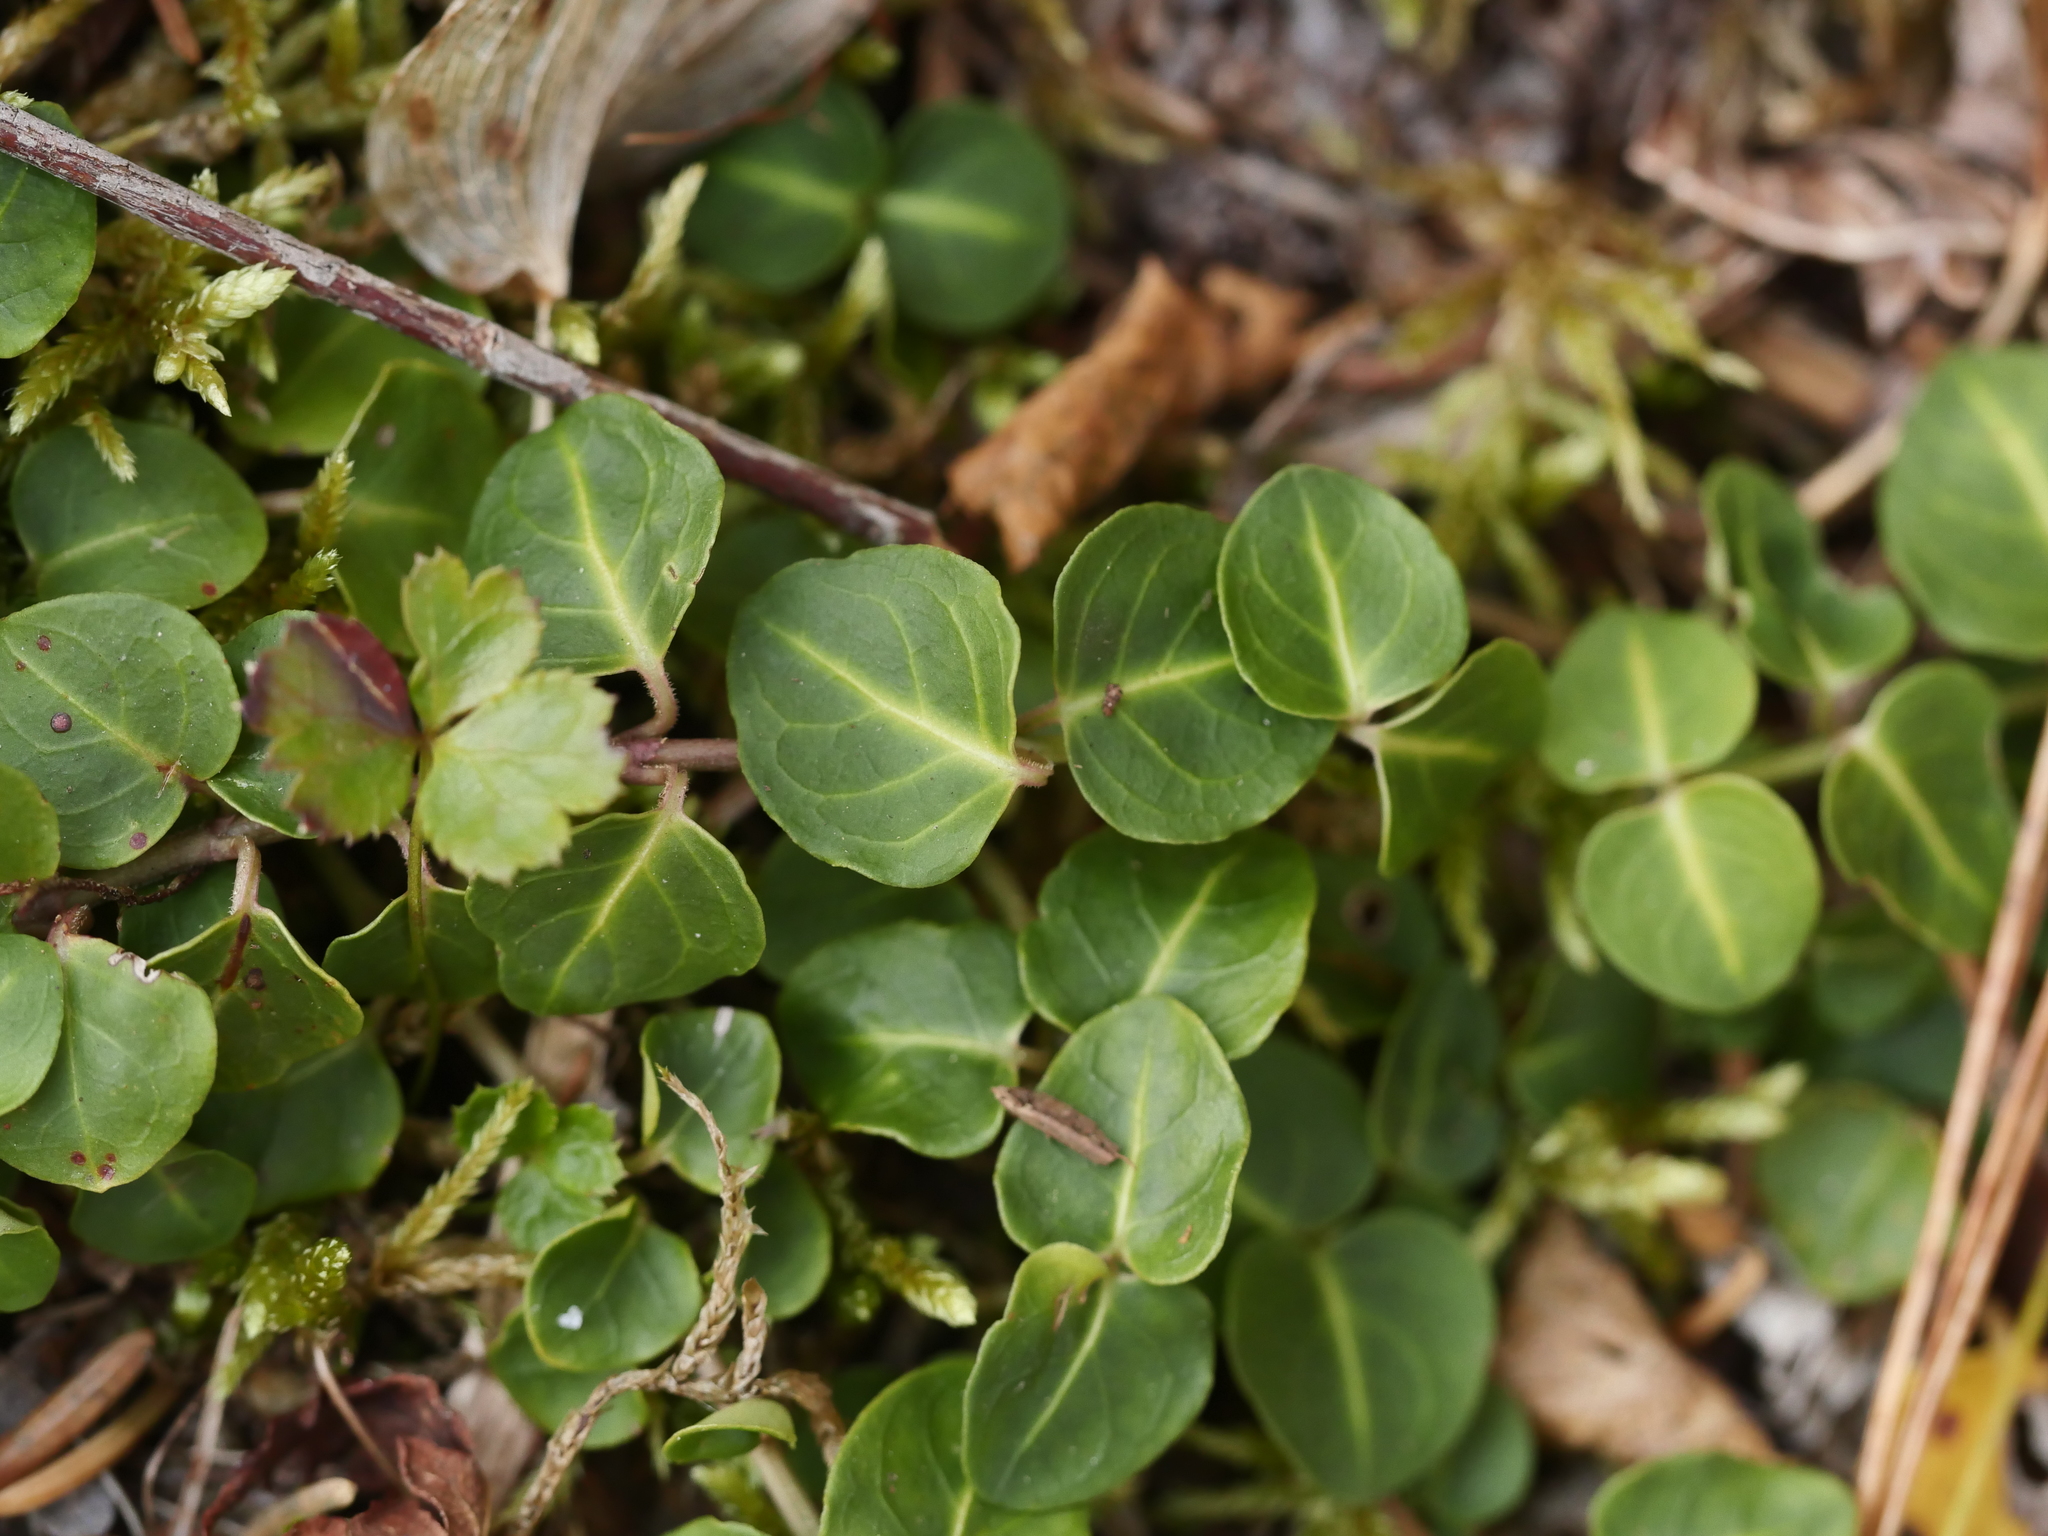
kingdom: Plantae
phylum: Tracheophyta
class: Magnoliopsida
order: Gentianales
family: Rubiaceae
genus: Mitchella
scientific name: Mitchella repens
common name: Partridge-berry
